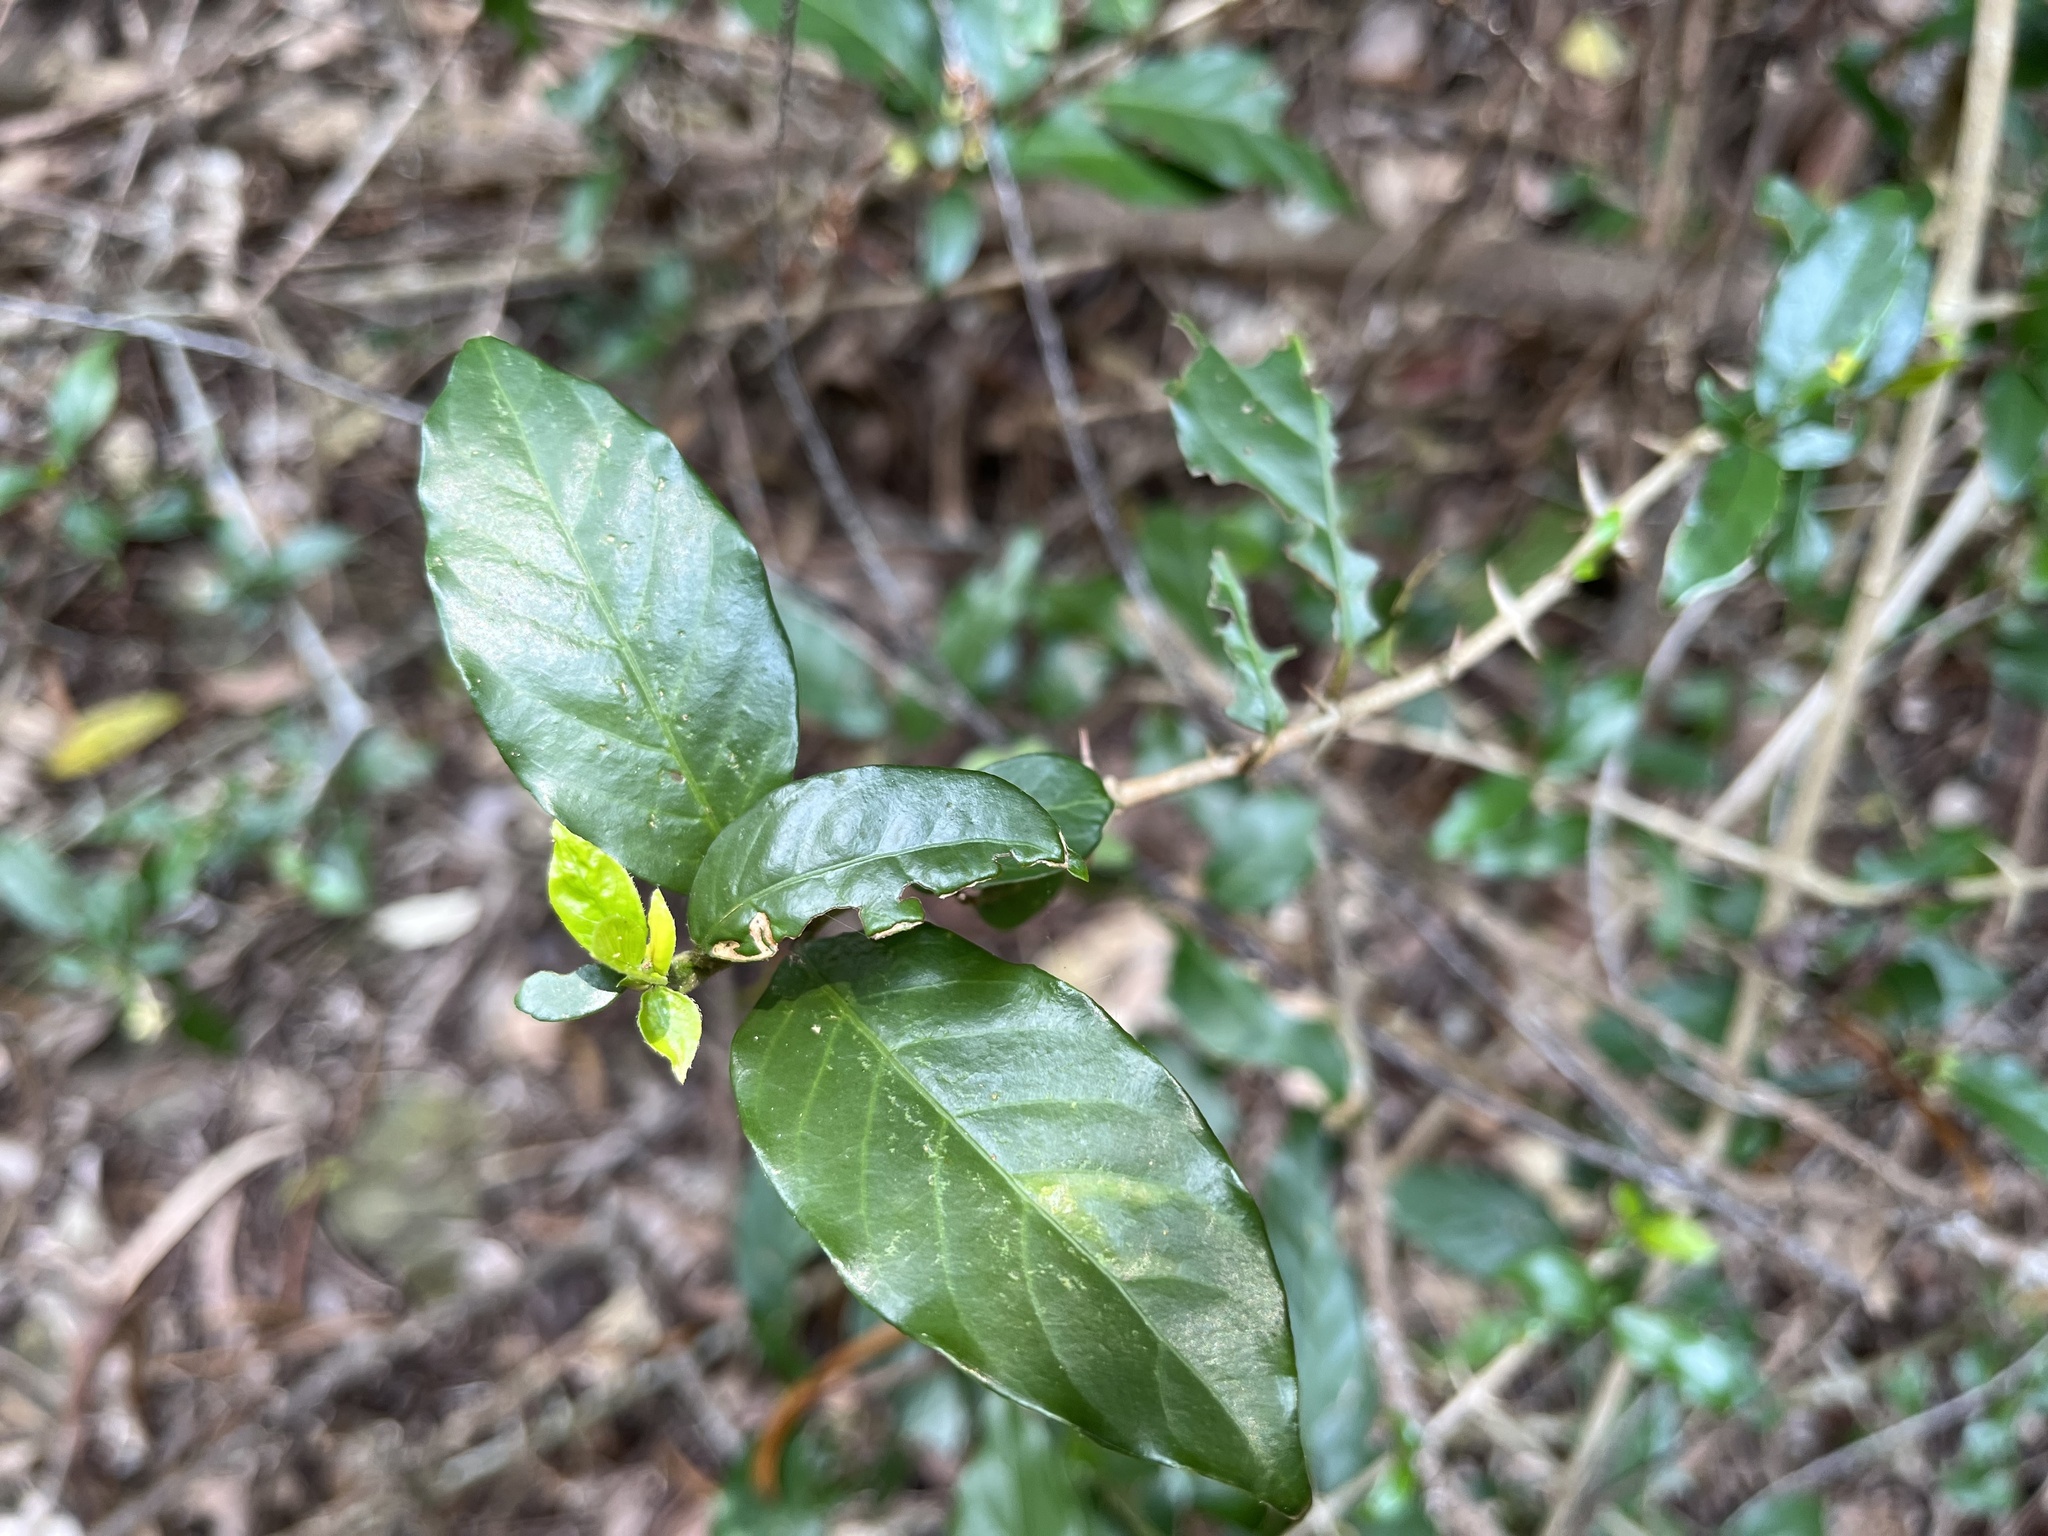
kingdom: Plantae
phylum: Tracheophyta
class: Magnoliopsida
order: Gentianales
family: Rubiaceae
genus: Benkara
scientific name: Benkara sinensis
